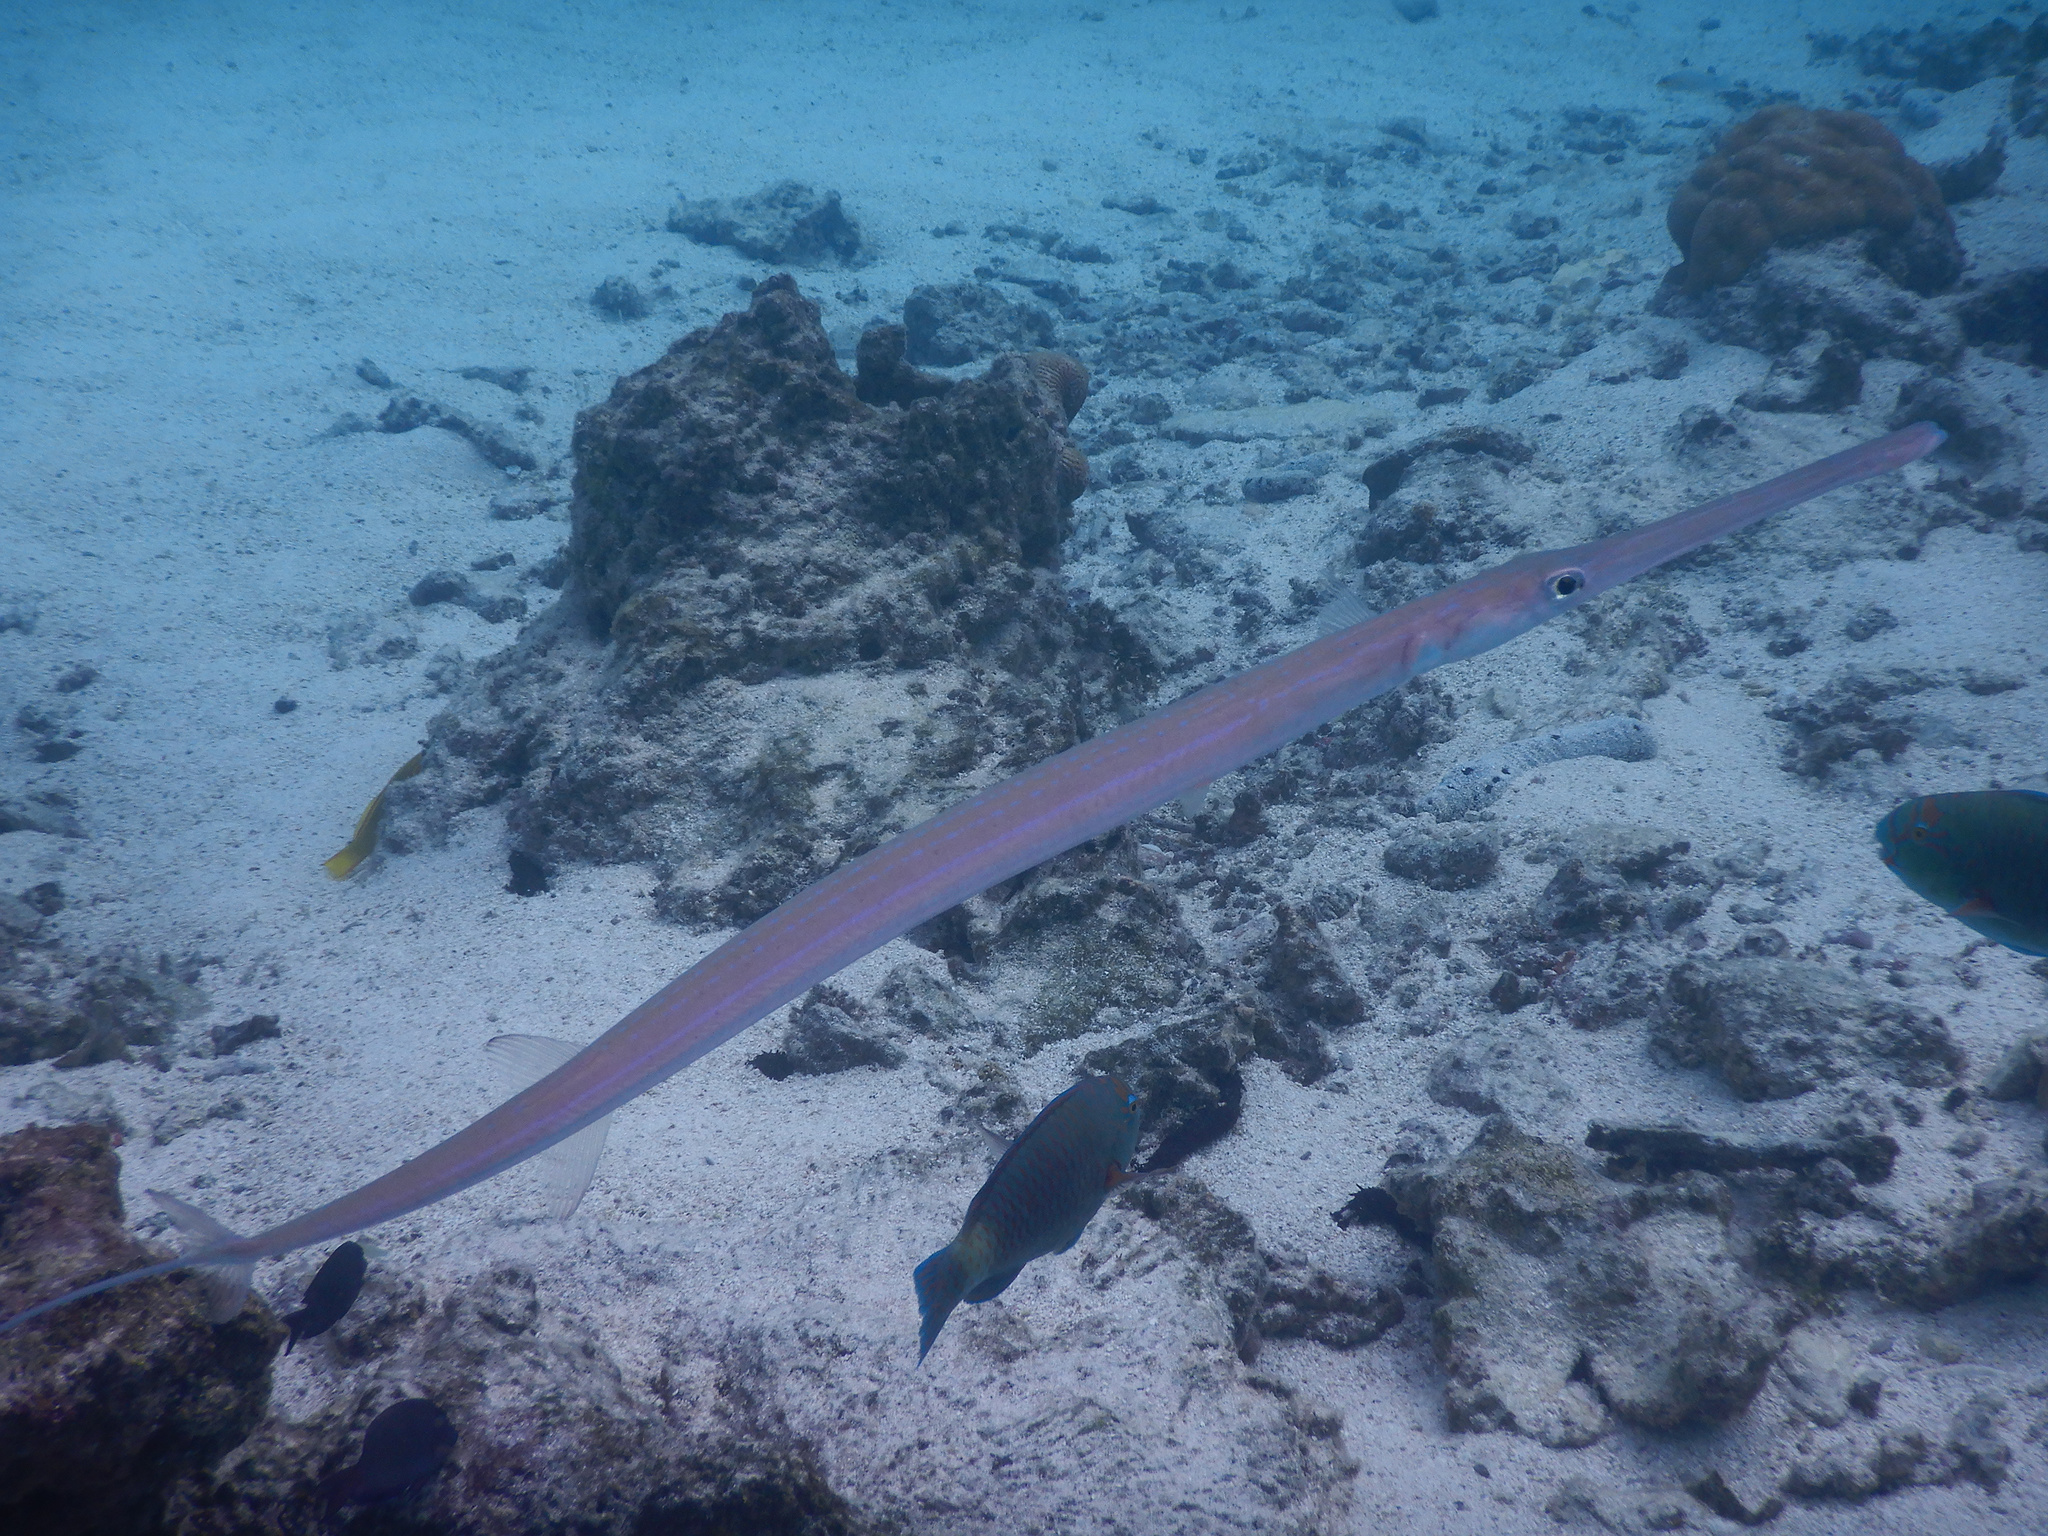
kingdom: Animalia
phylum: Chordata
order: Syngnathiformes
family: Fistulariidae
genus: Fistularia
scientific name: Fistularia commersonii
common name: Bluespotted cornetfish
